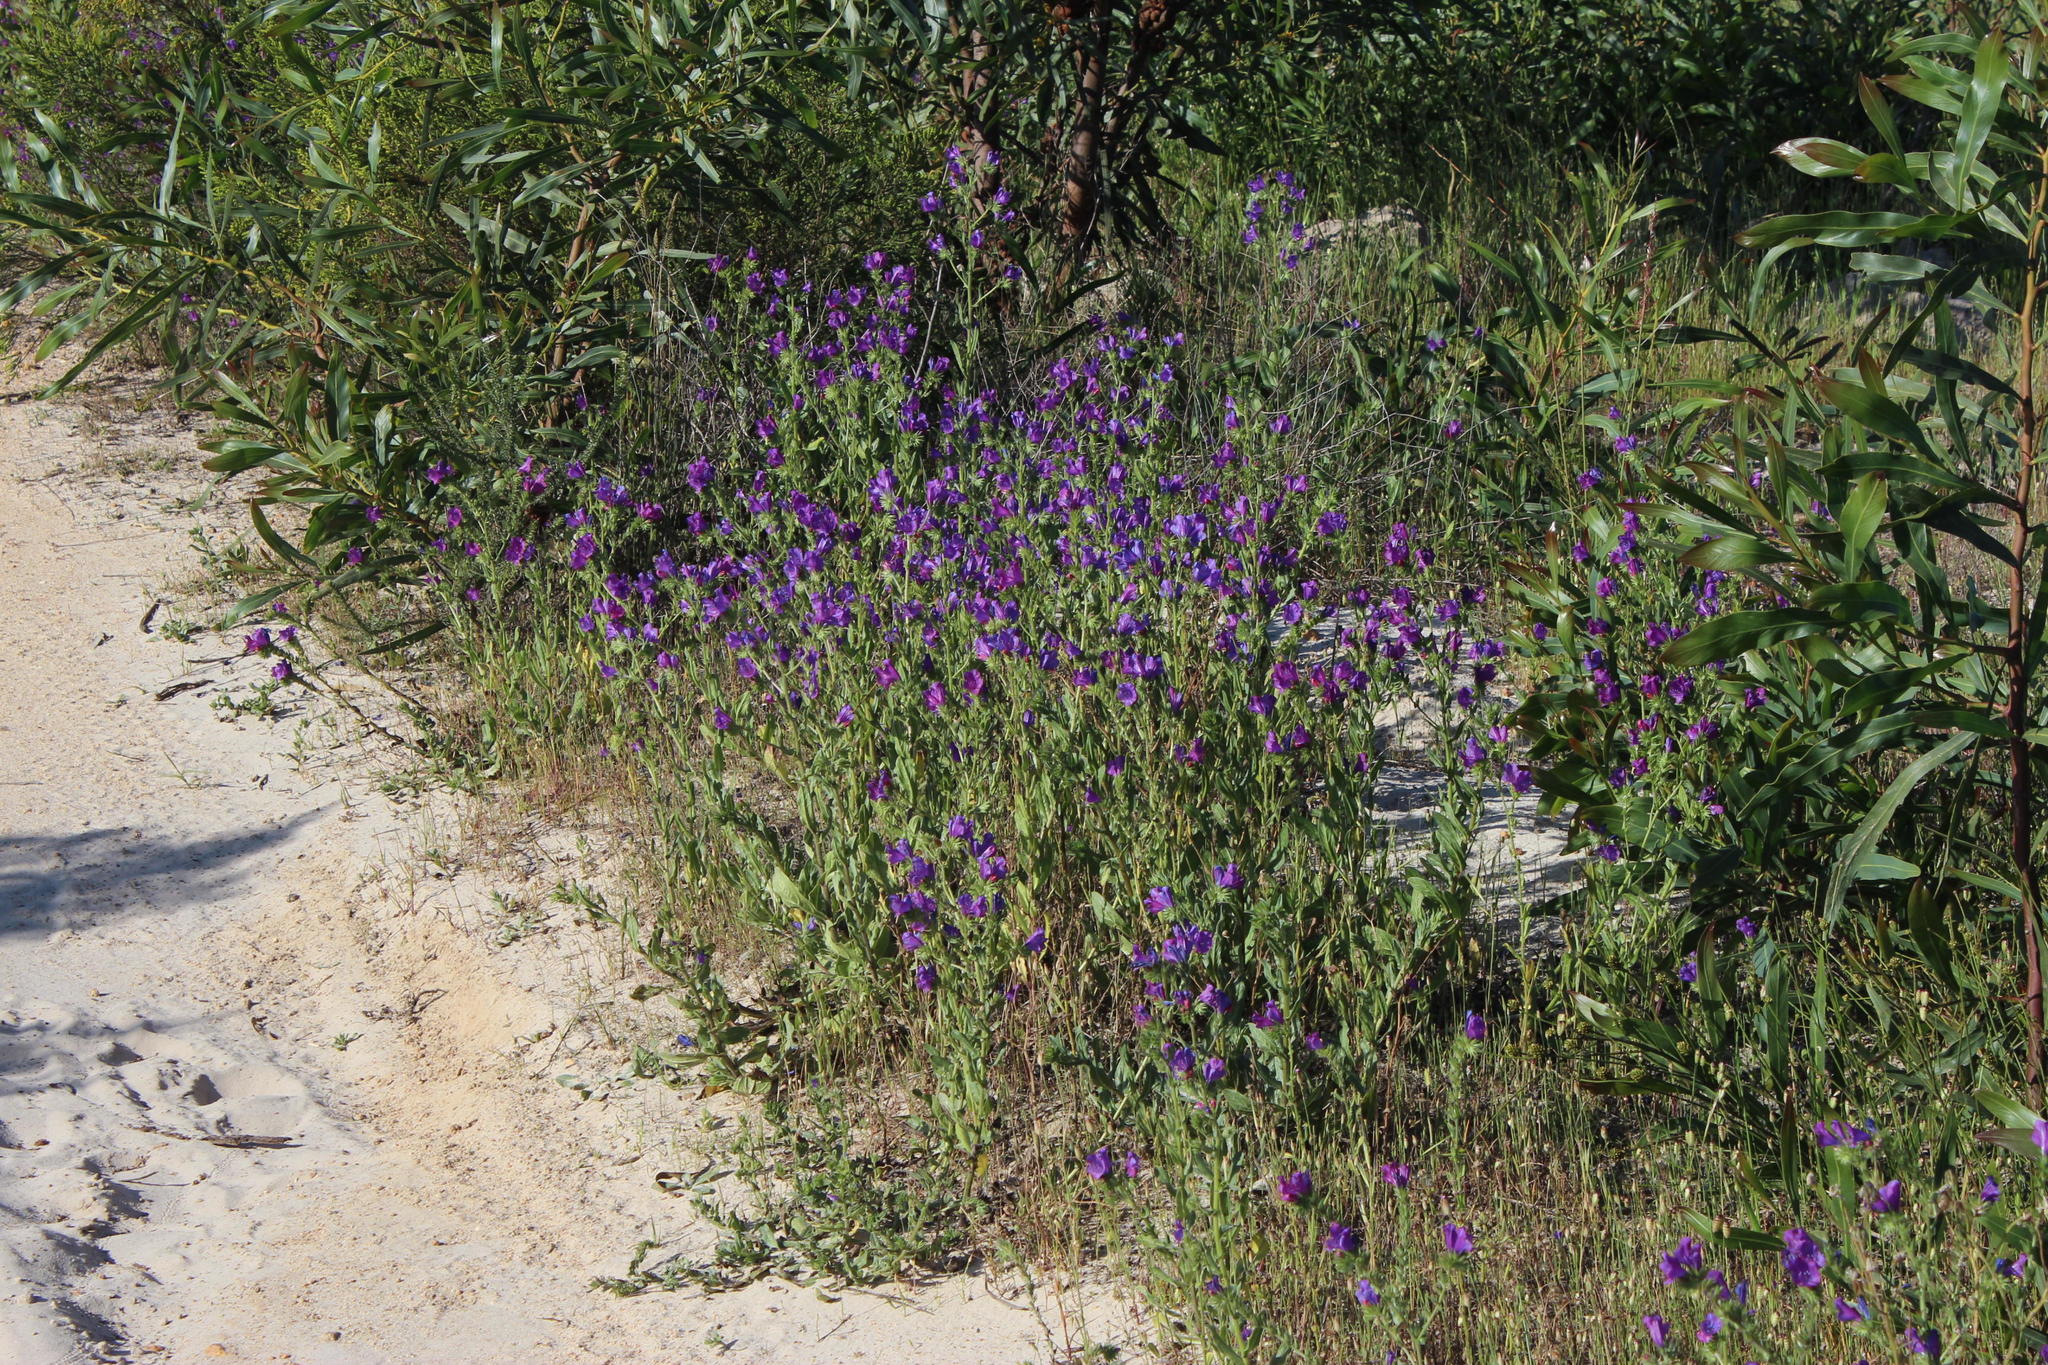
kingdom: Plantae
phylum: Tracheophyta
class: Magnoliopsida
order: Boraginales
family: Boraginaceae
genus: Echium
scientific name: Echium plantagineum
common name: Purple viper's-bugloss
